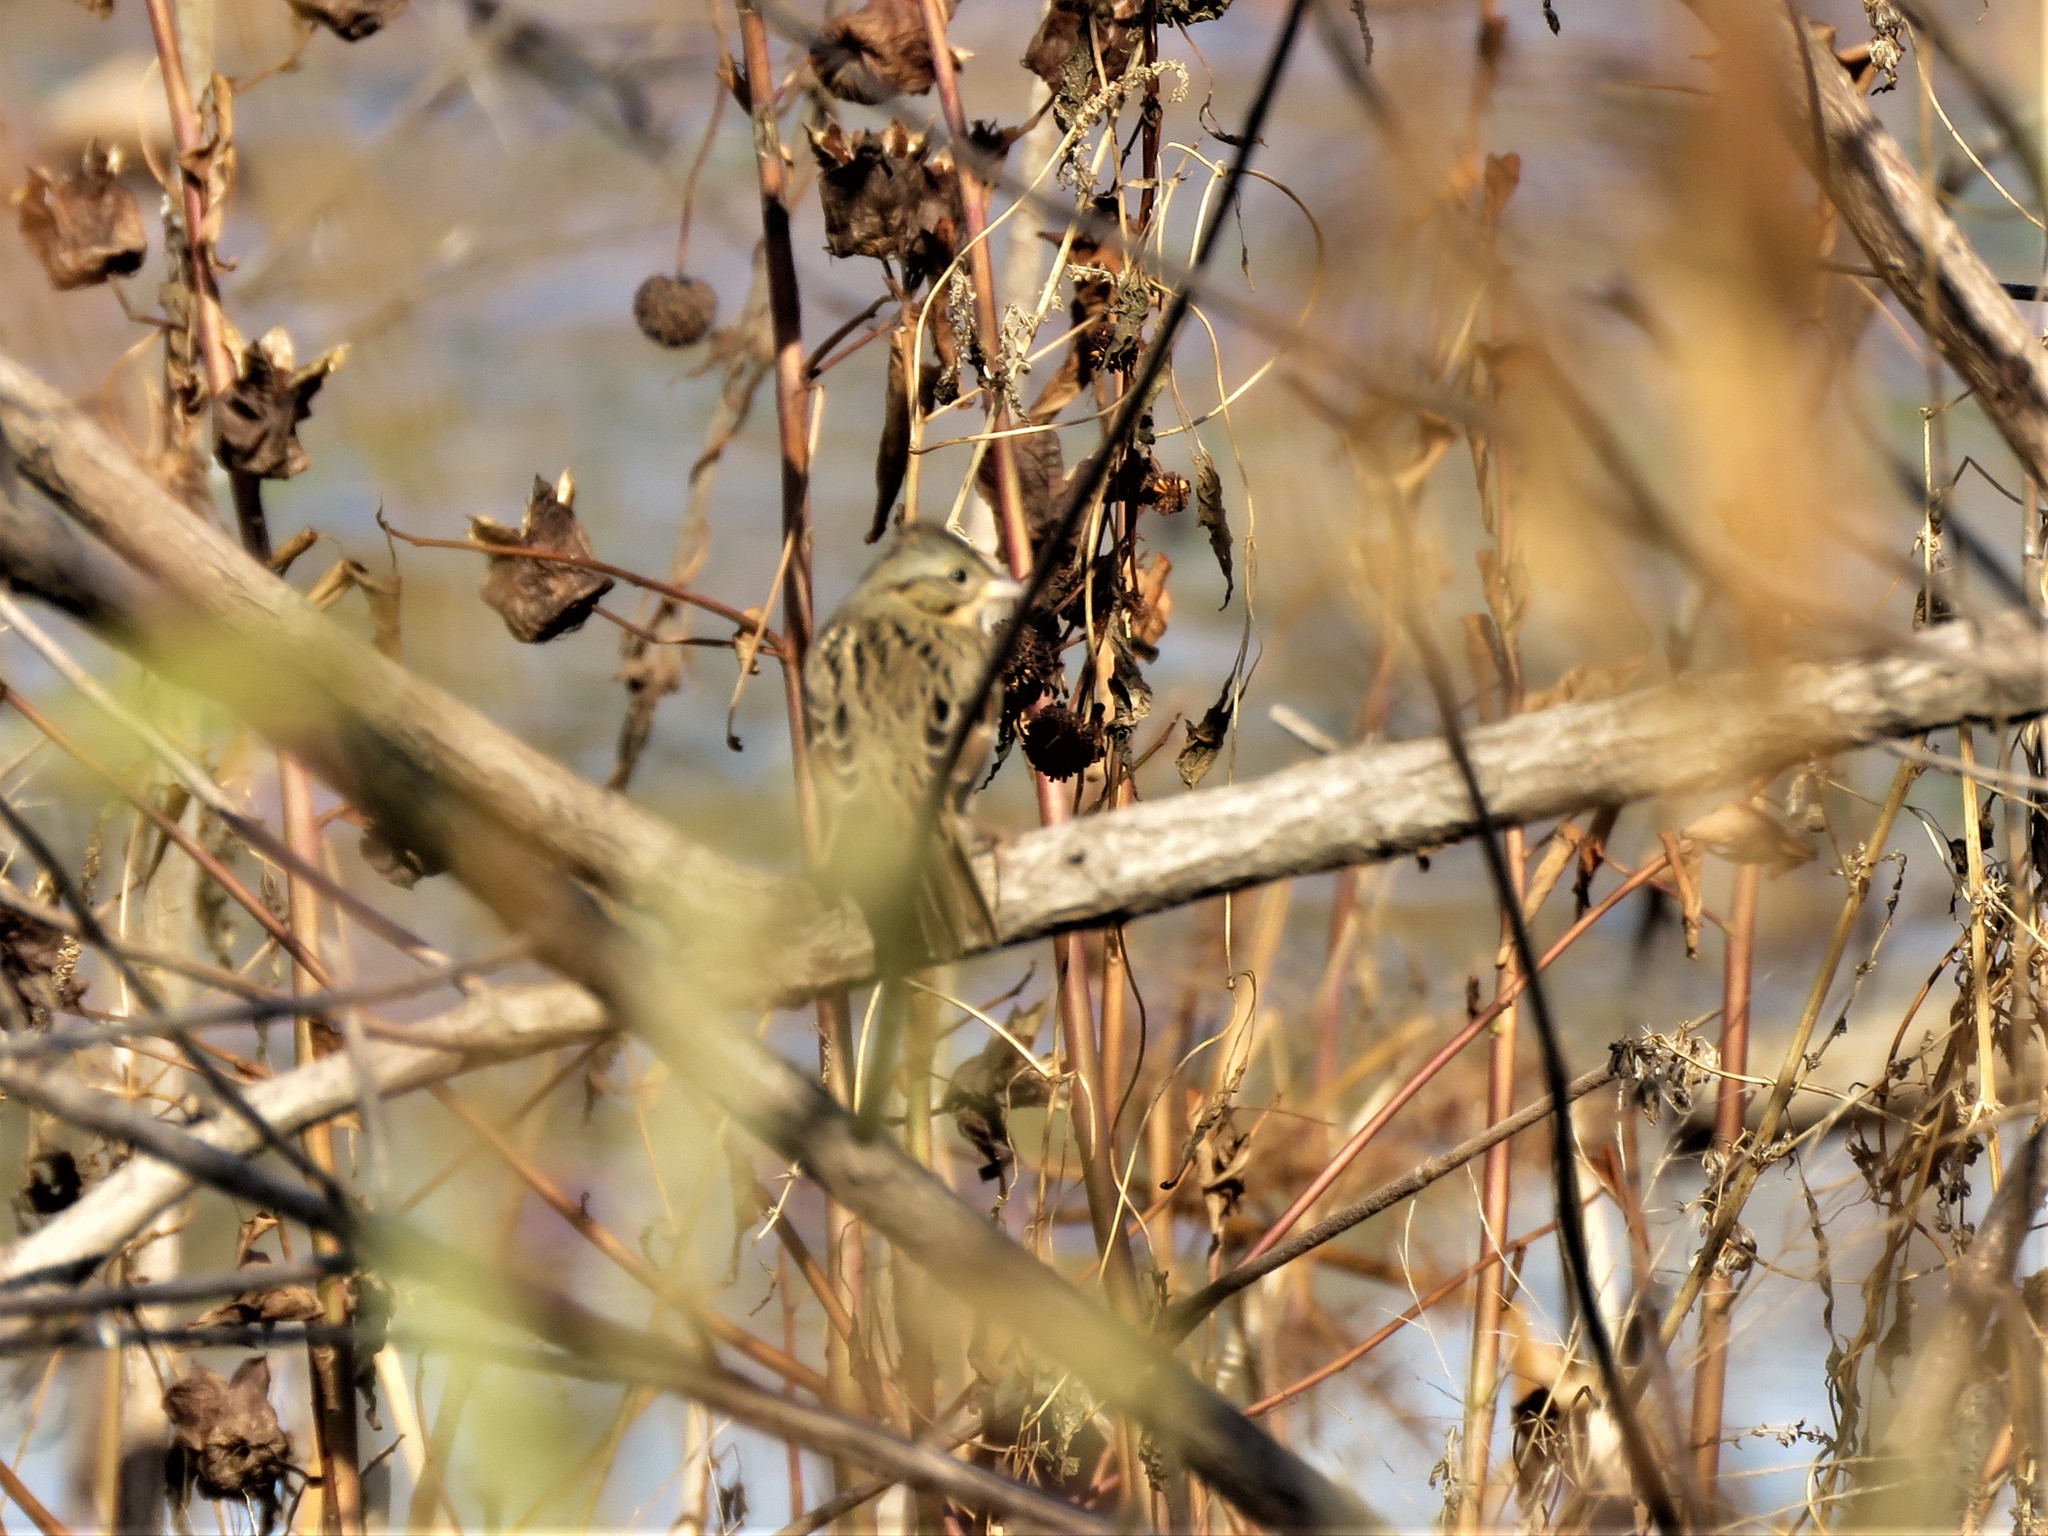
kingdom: Animalia
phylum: Chordata
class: Aves
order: Passeriformes
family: Passerellidae
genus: Melospiza
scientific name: Melospiza lincolnii
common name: Lincoln's sparrow
